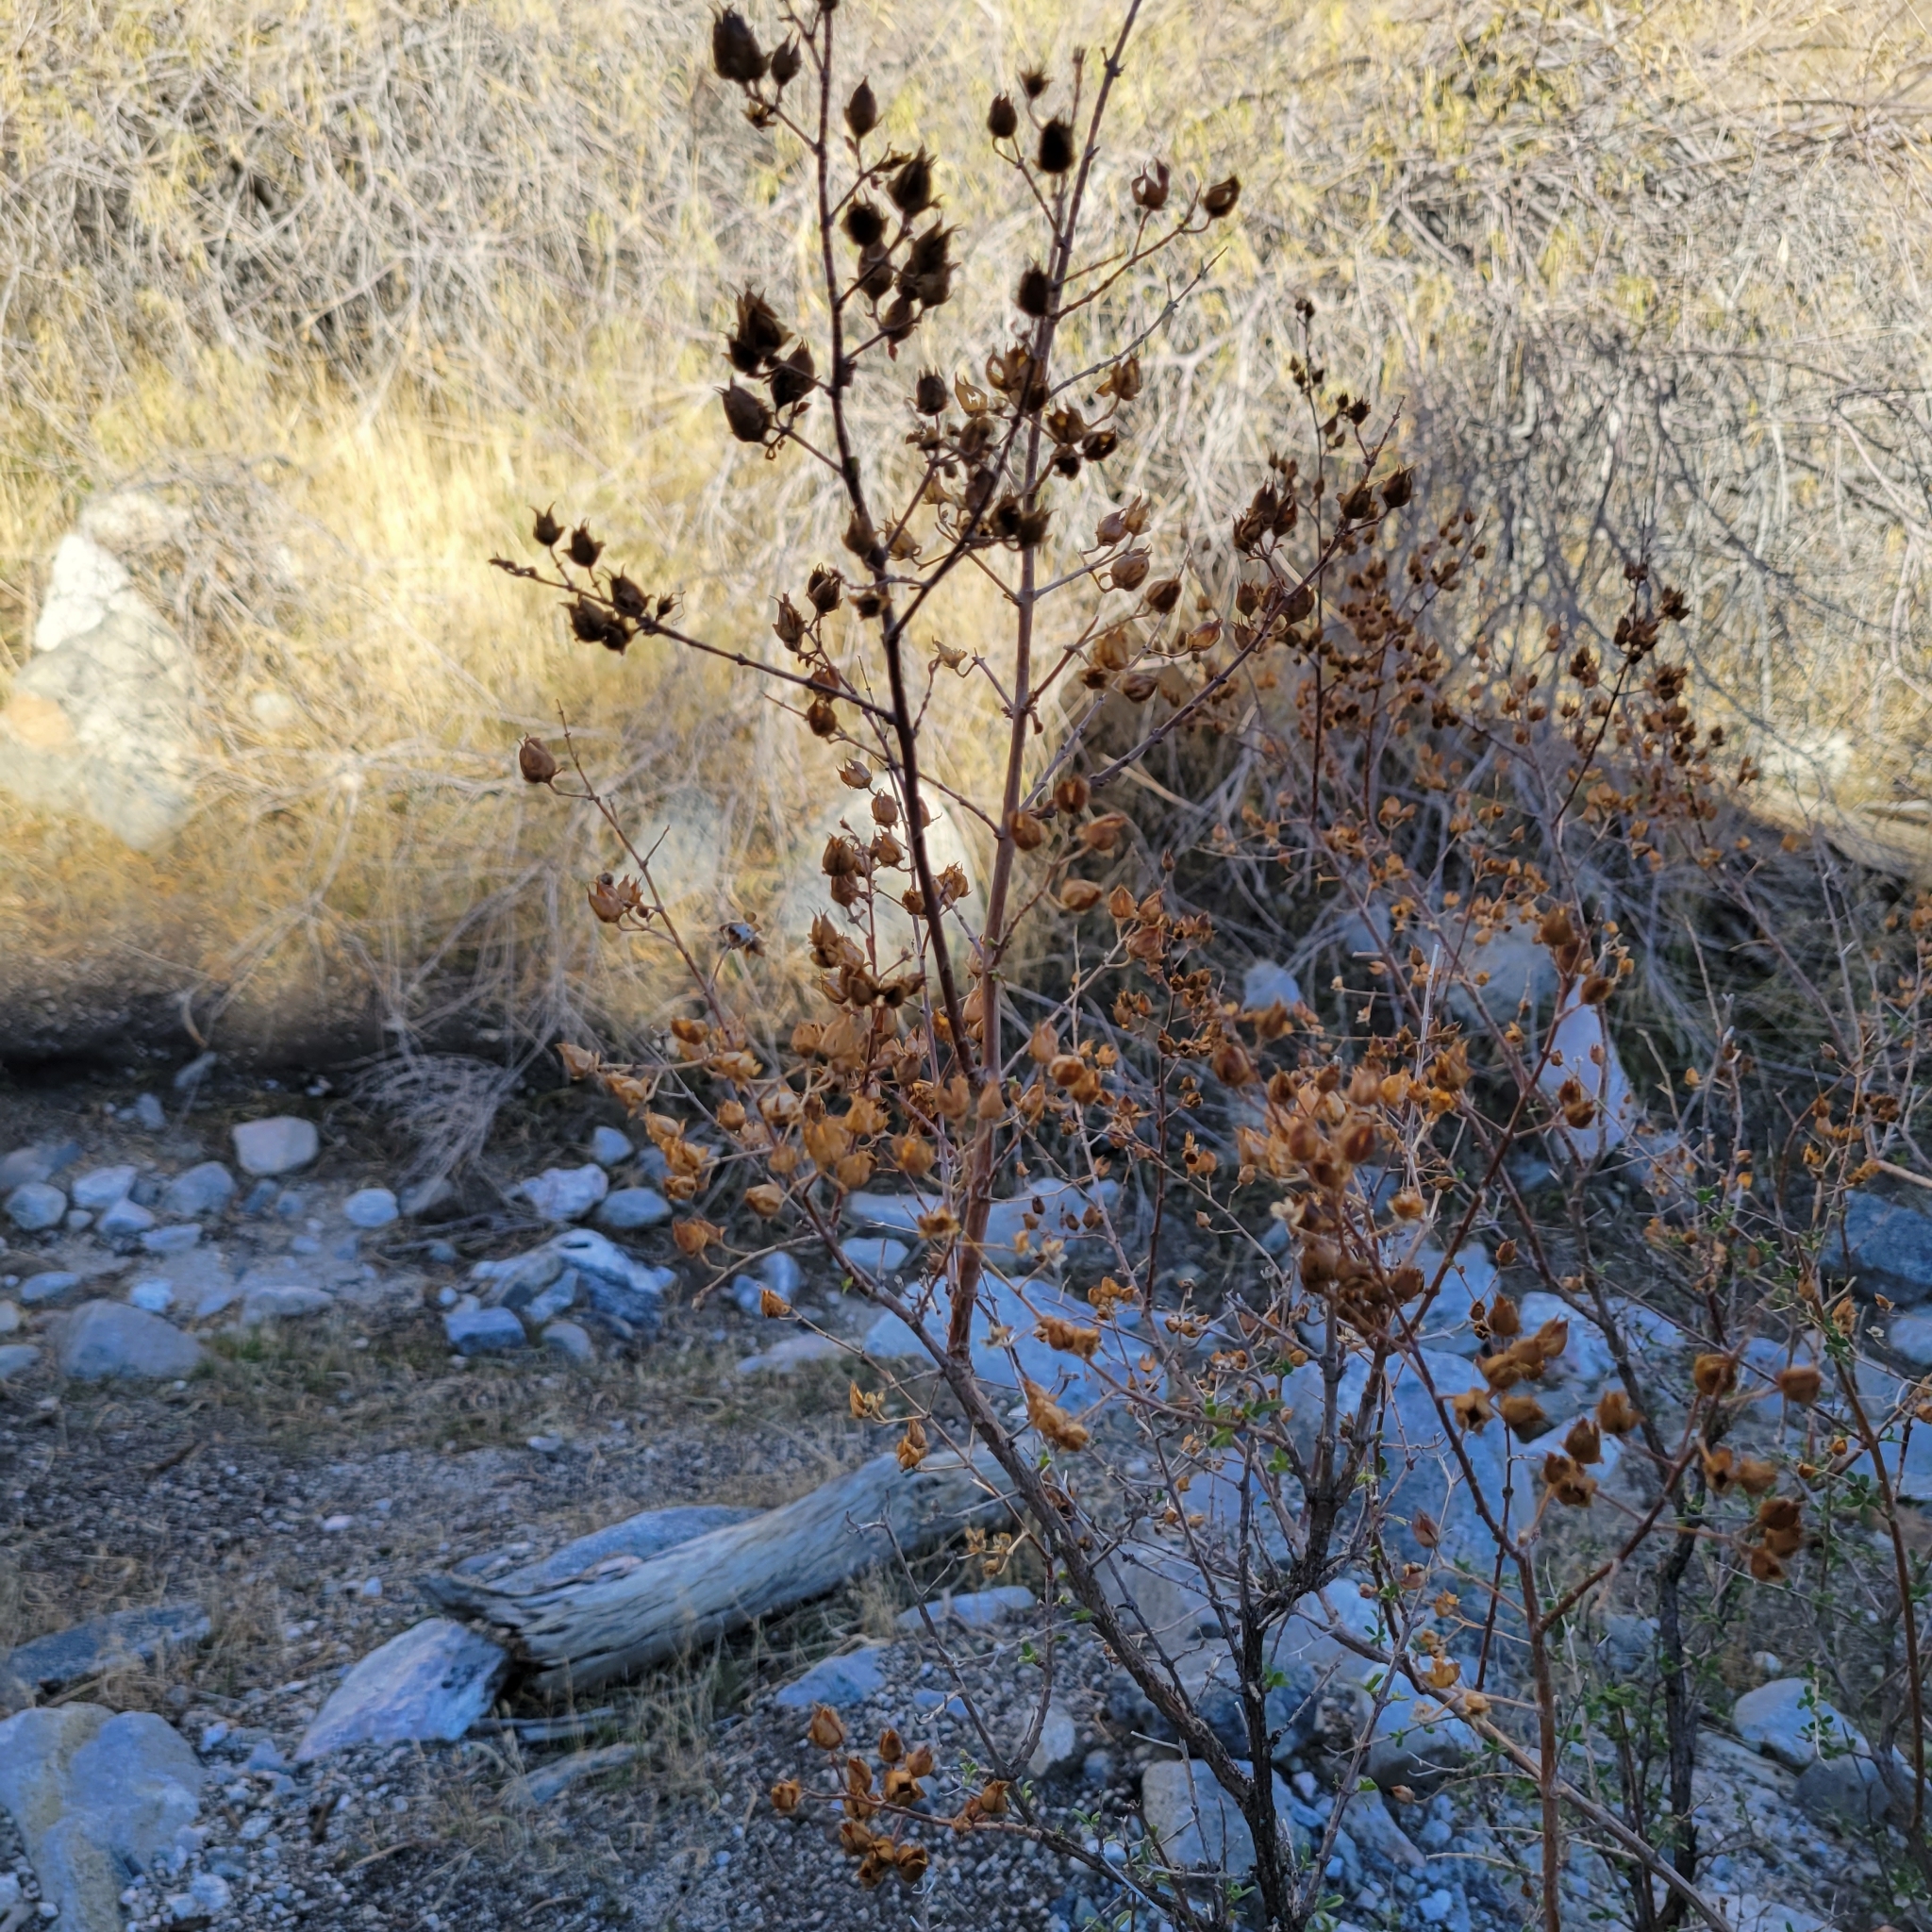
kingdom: Plantae
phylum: Tracheophyta
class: Magnoliopsida
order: Lamiales
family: Plantaginaceae
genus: Keckiella
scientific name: Keckiella antirrhinoides
